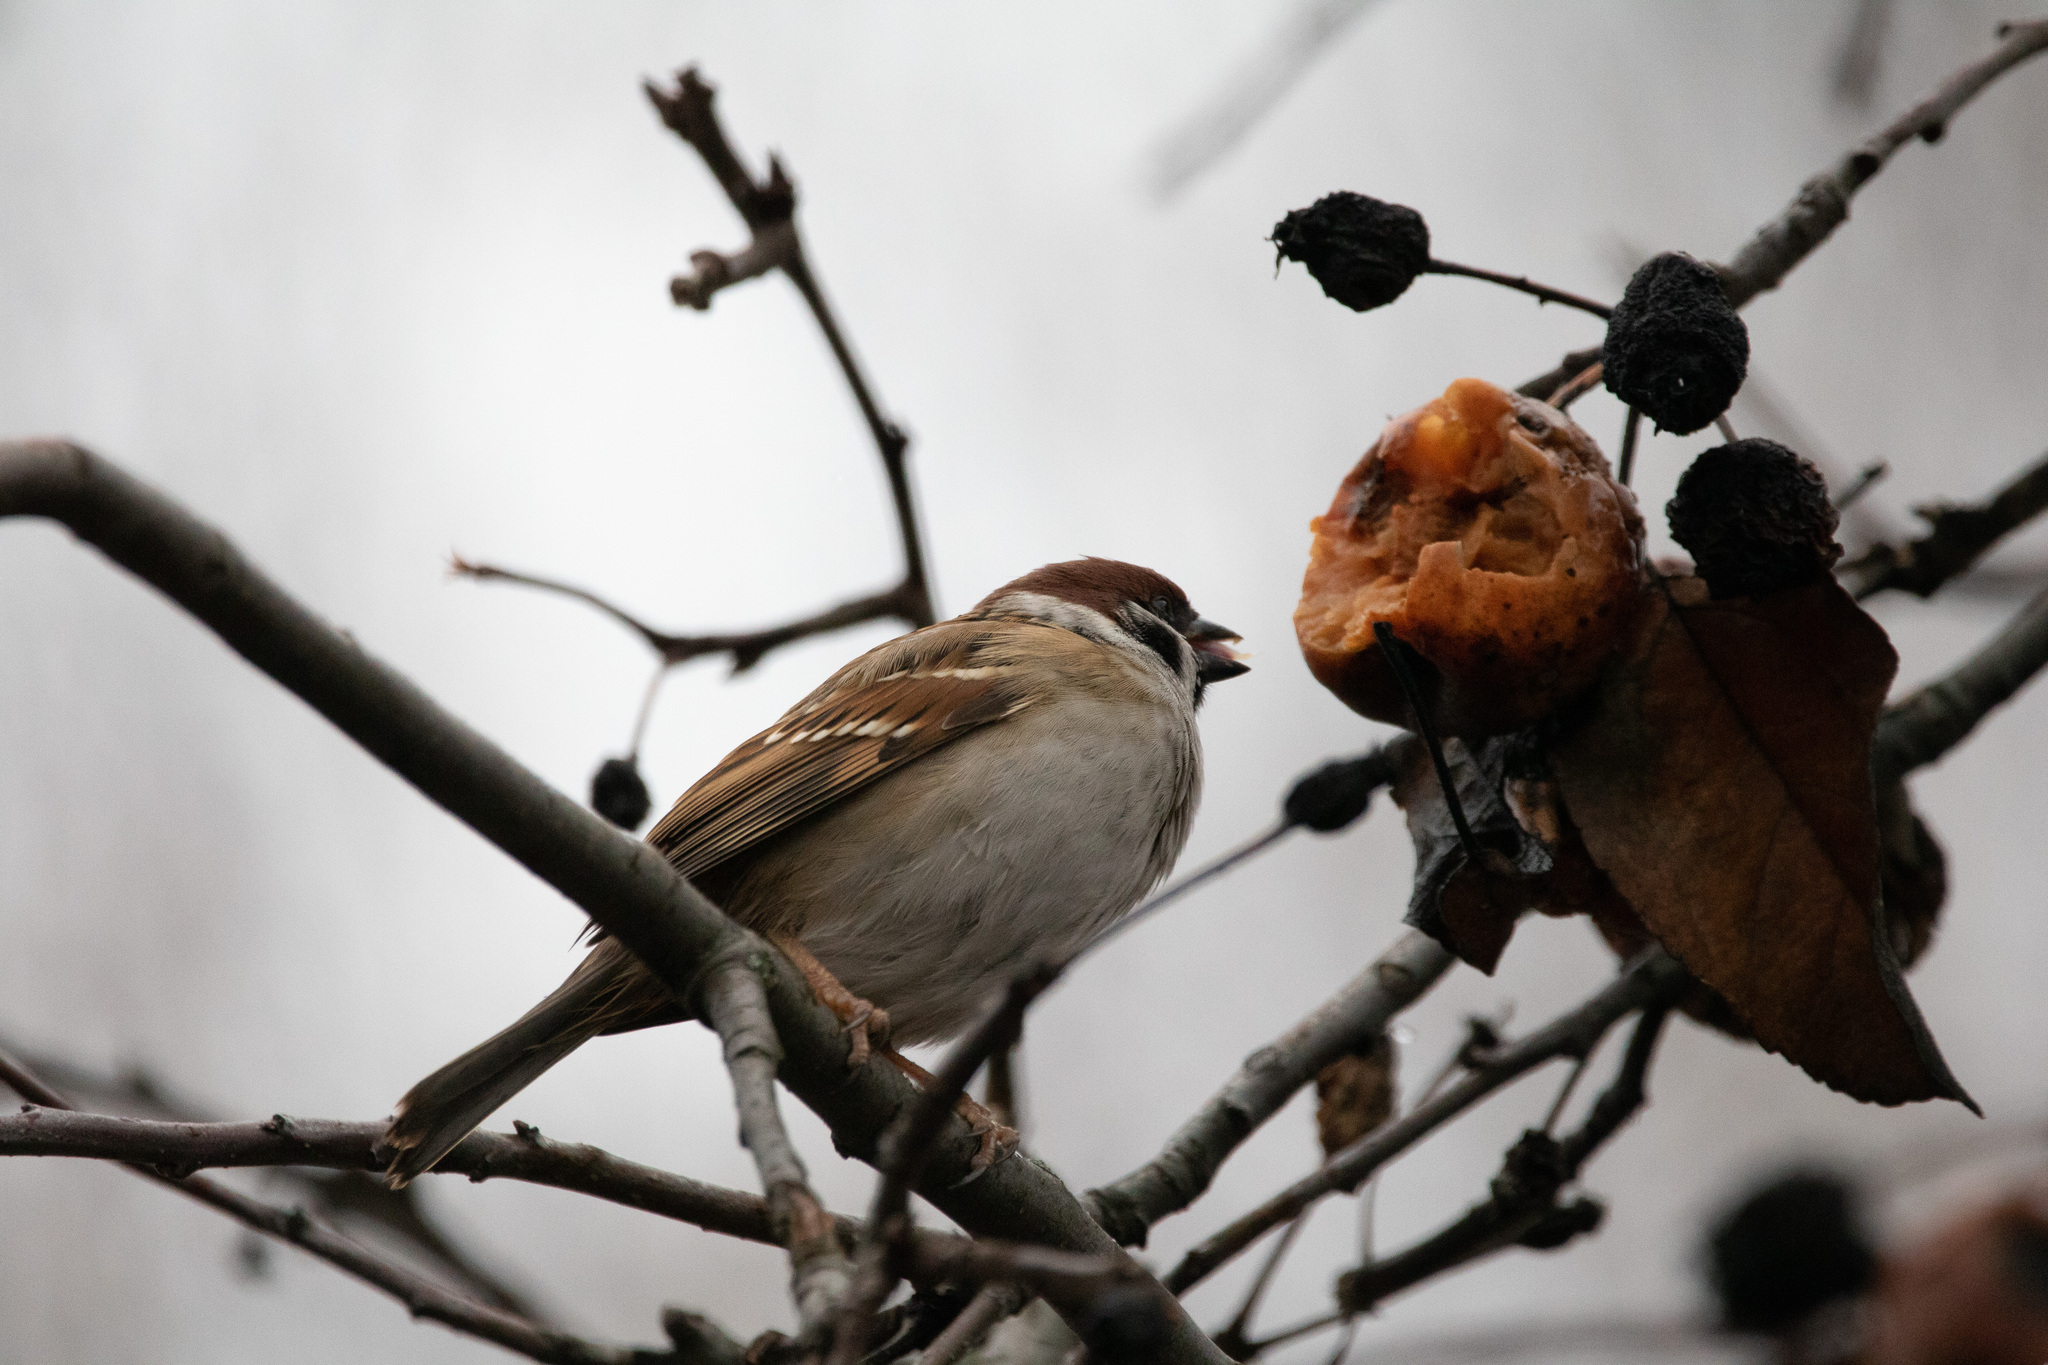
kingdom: Animalia
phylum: Chordata
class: Aves
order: Passeriformes
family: Passeridae
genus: Passer
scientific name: Passer montanus
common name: Eurasian tree sparrow
